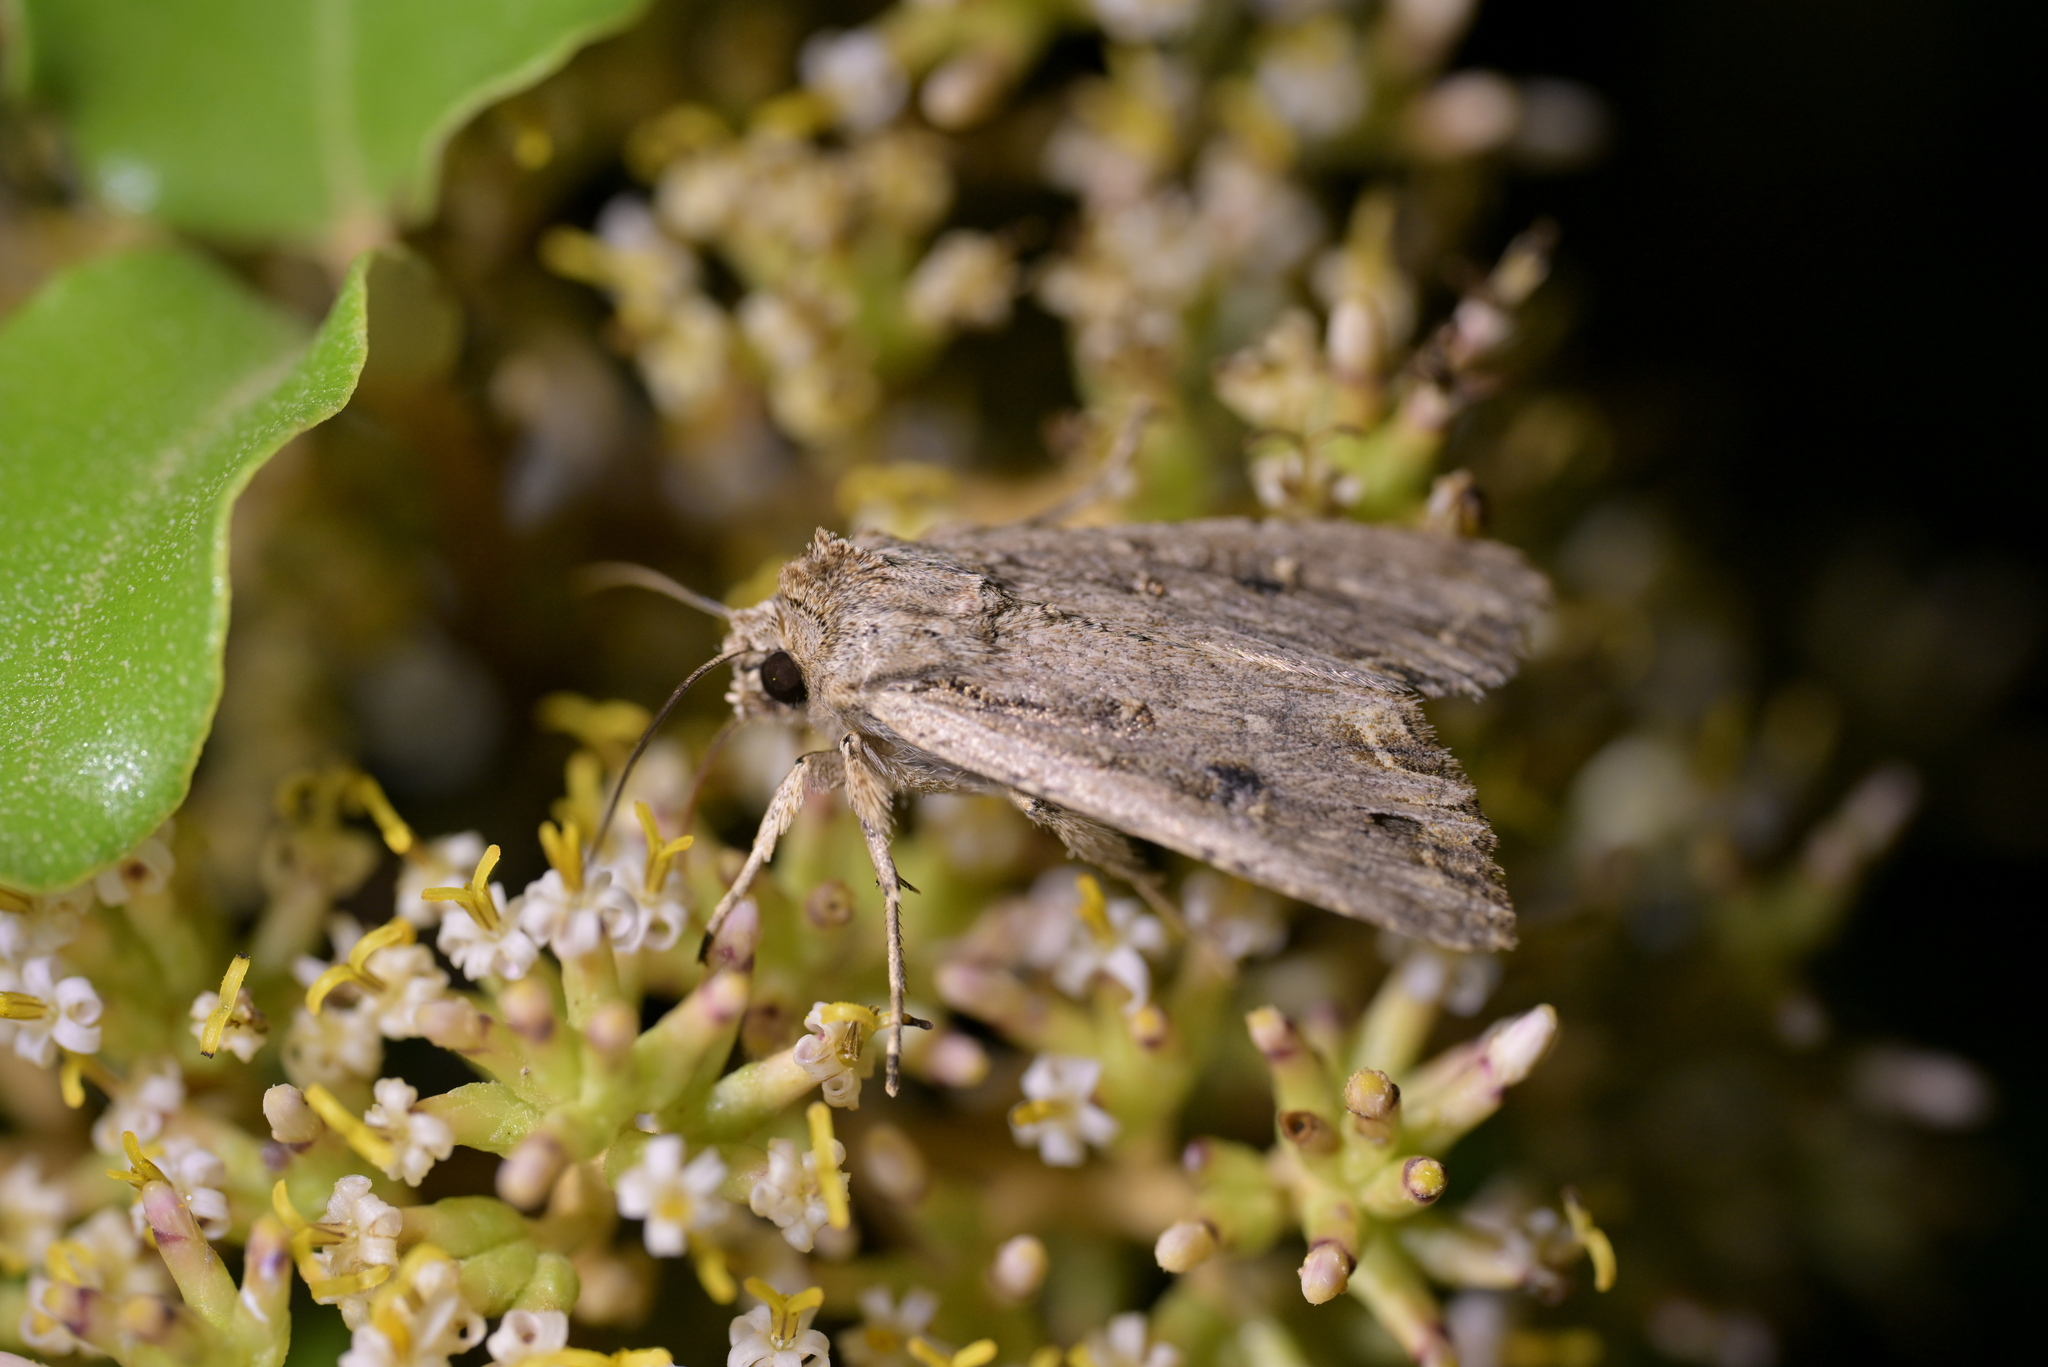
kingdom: Animalia
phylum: Arthropoda
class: Insecta
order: Lepidoptera
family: Noctuidae
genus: Ichneutica
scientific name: Ichneutica lignana
